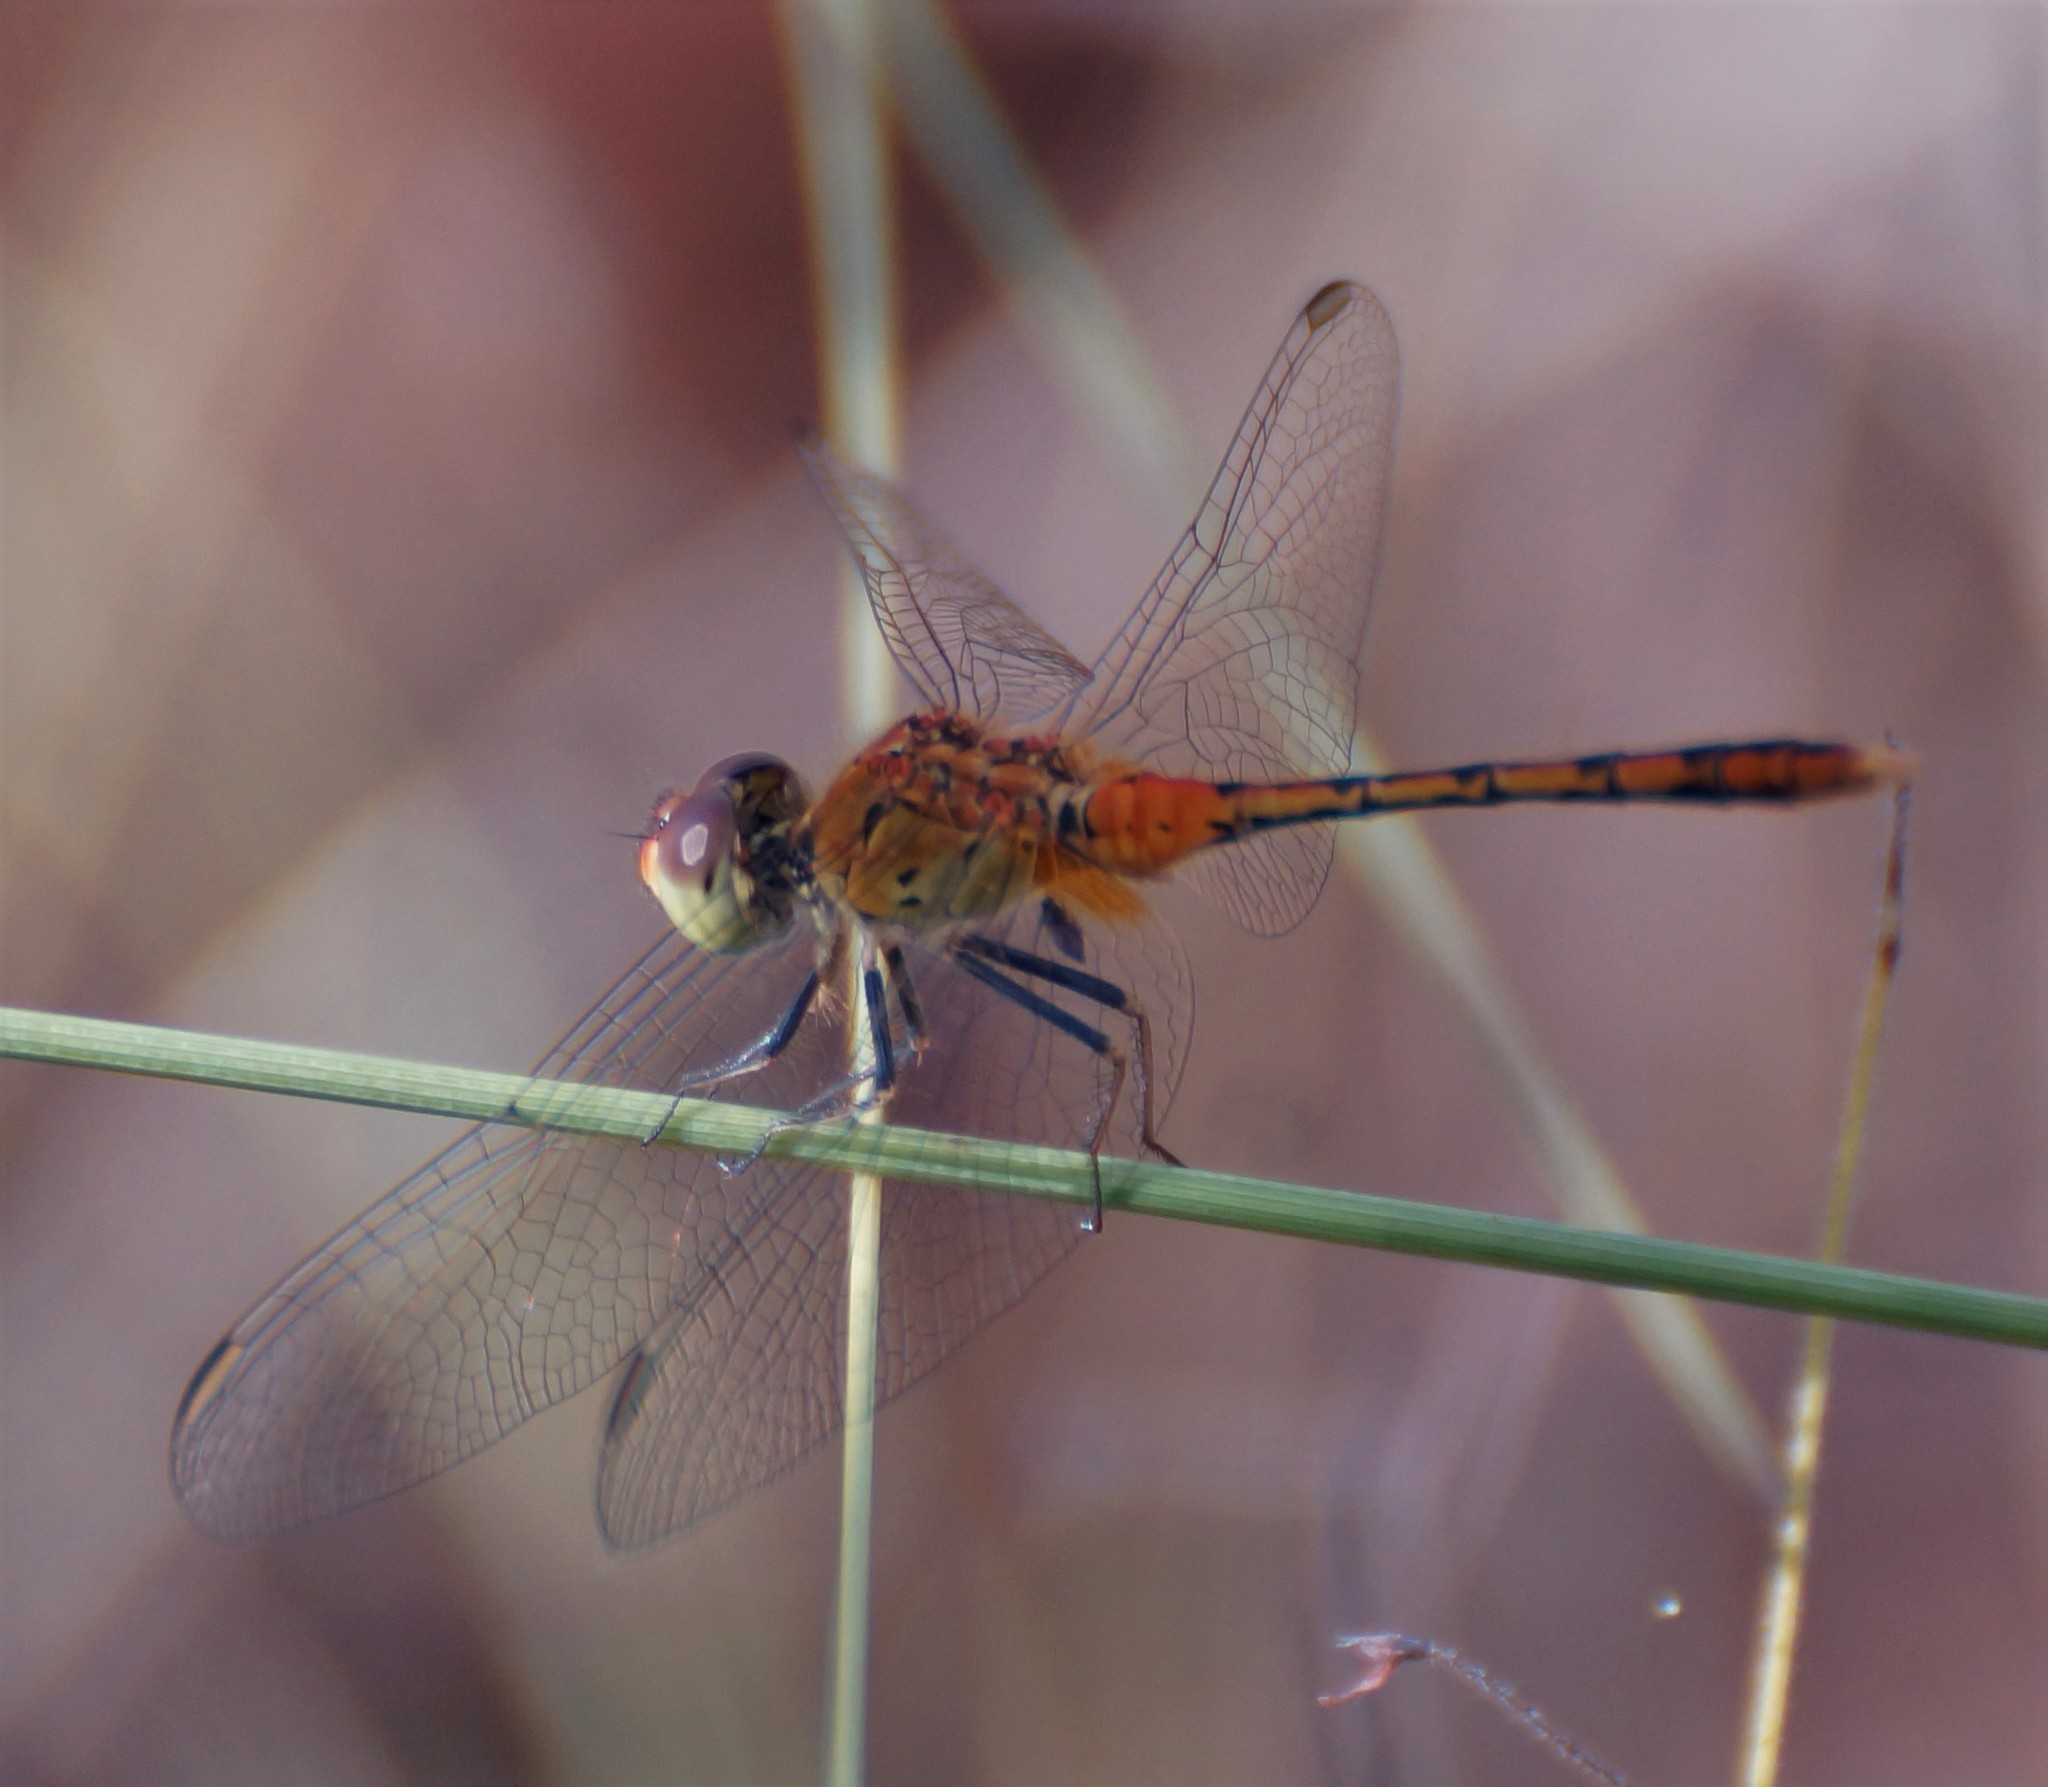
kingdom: Animalia
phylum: Arthropoda
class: Insecta
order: Odonata
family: Libellulidae
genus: Diplacodes
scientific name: Diplacodes bipunctata
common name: Red percher dragonfly
